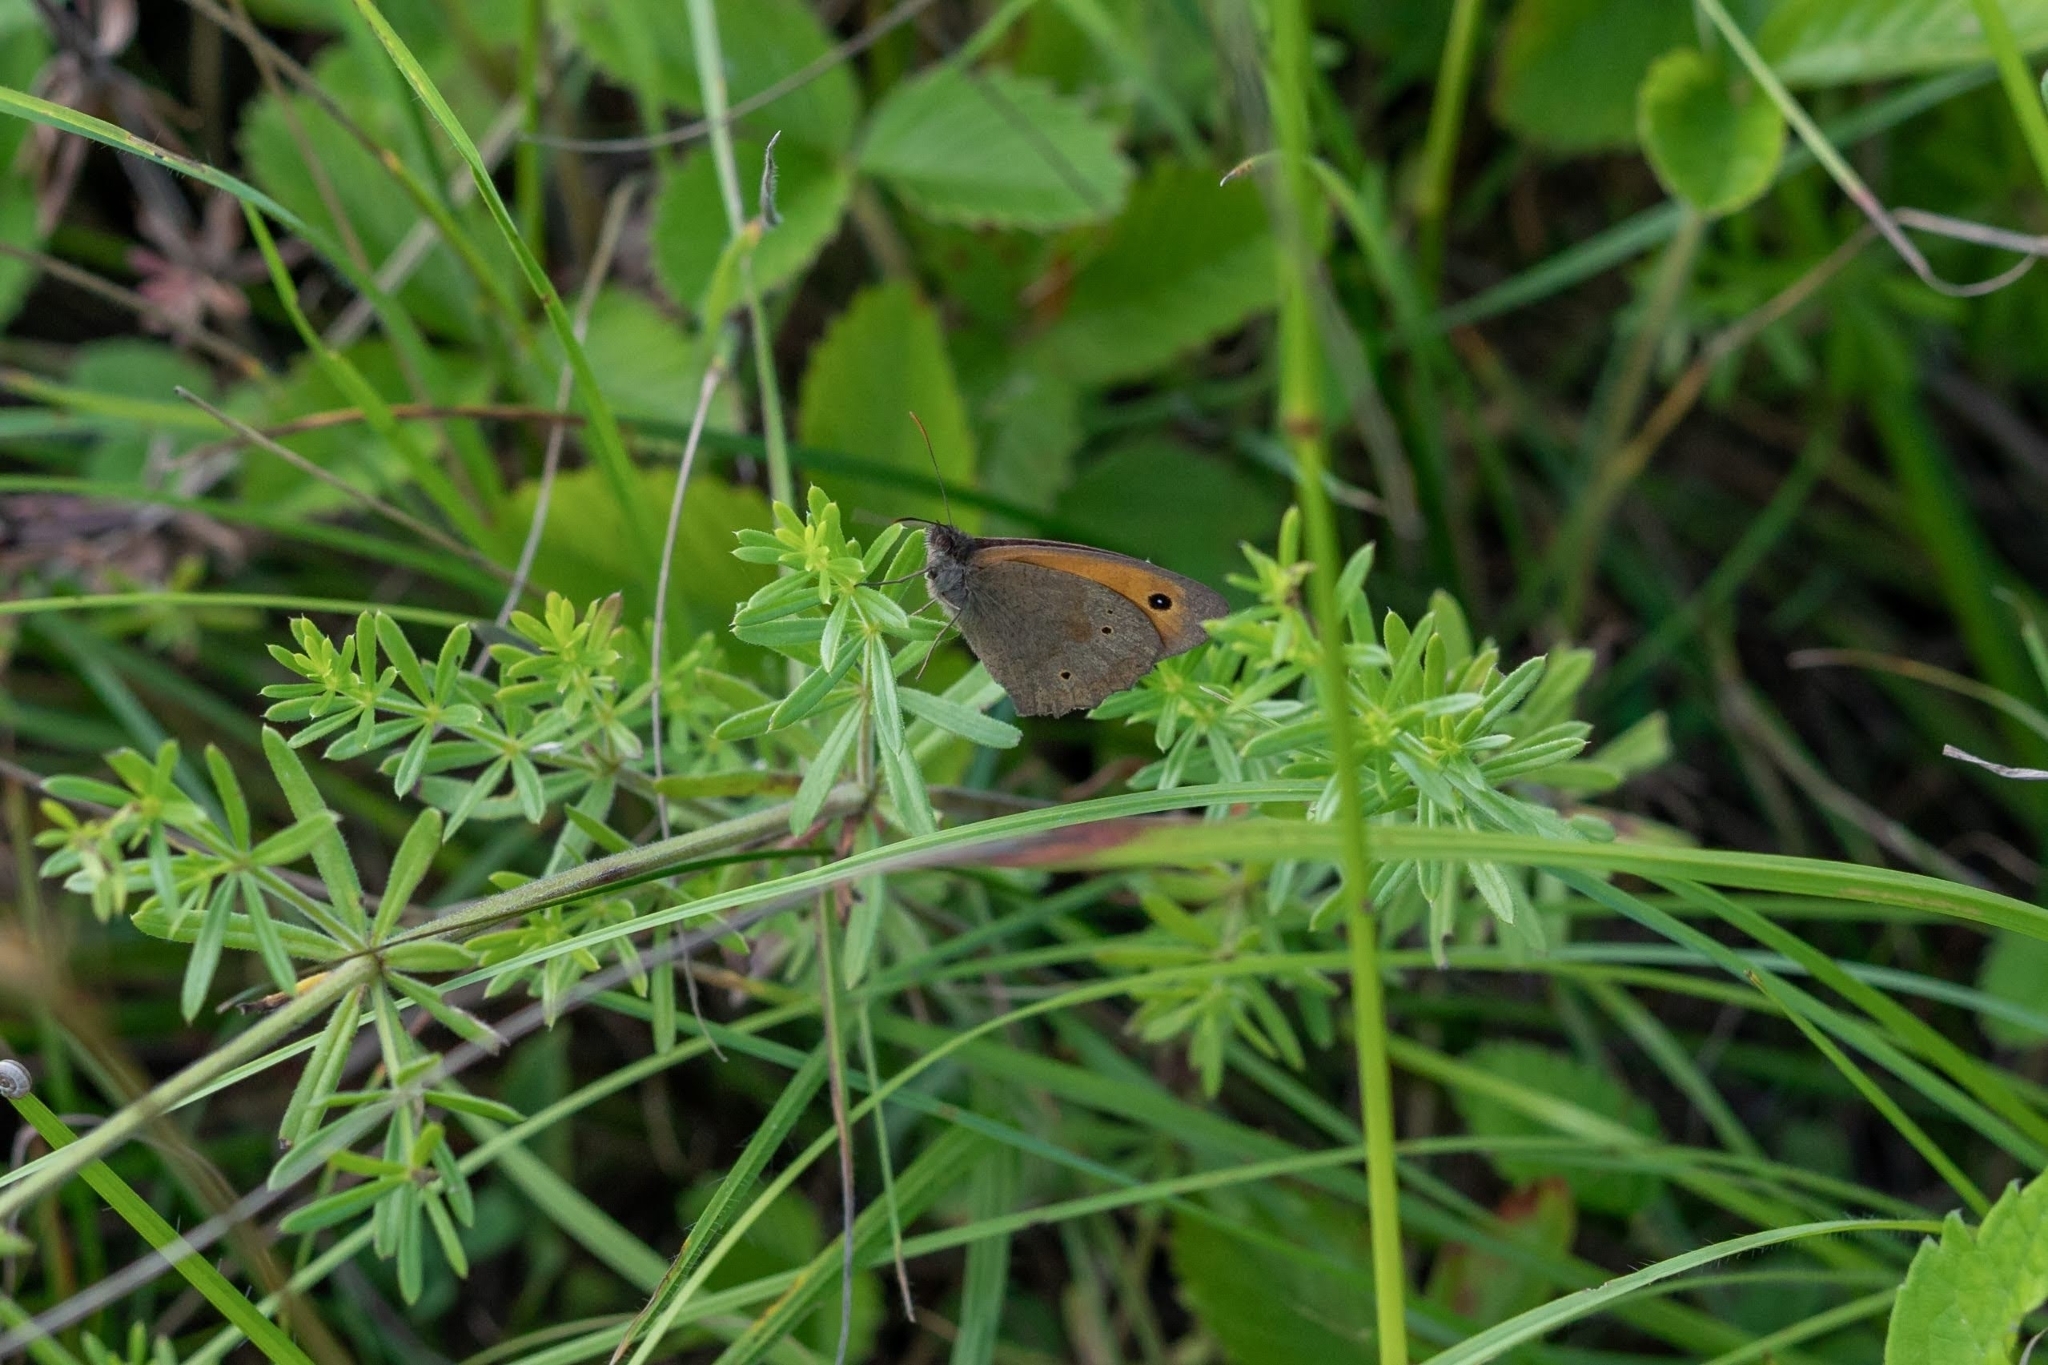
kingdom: Animalia
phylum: Arthropoda
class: Insecta
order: Lepidoptera
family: Nymphalidae
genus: Maniola
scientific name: Maniola jurtina
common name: Meadow brown
